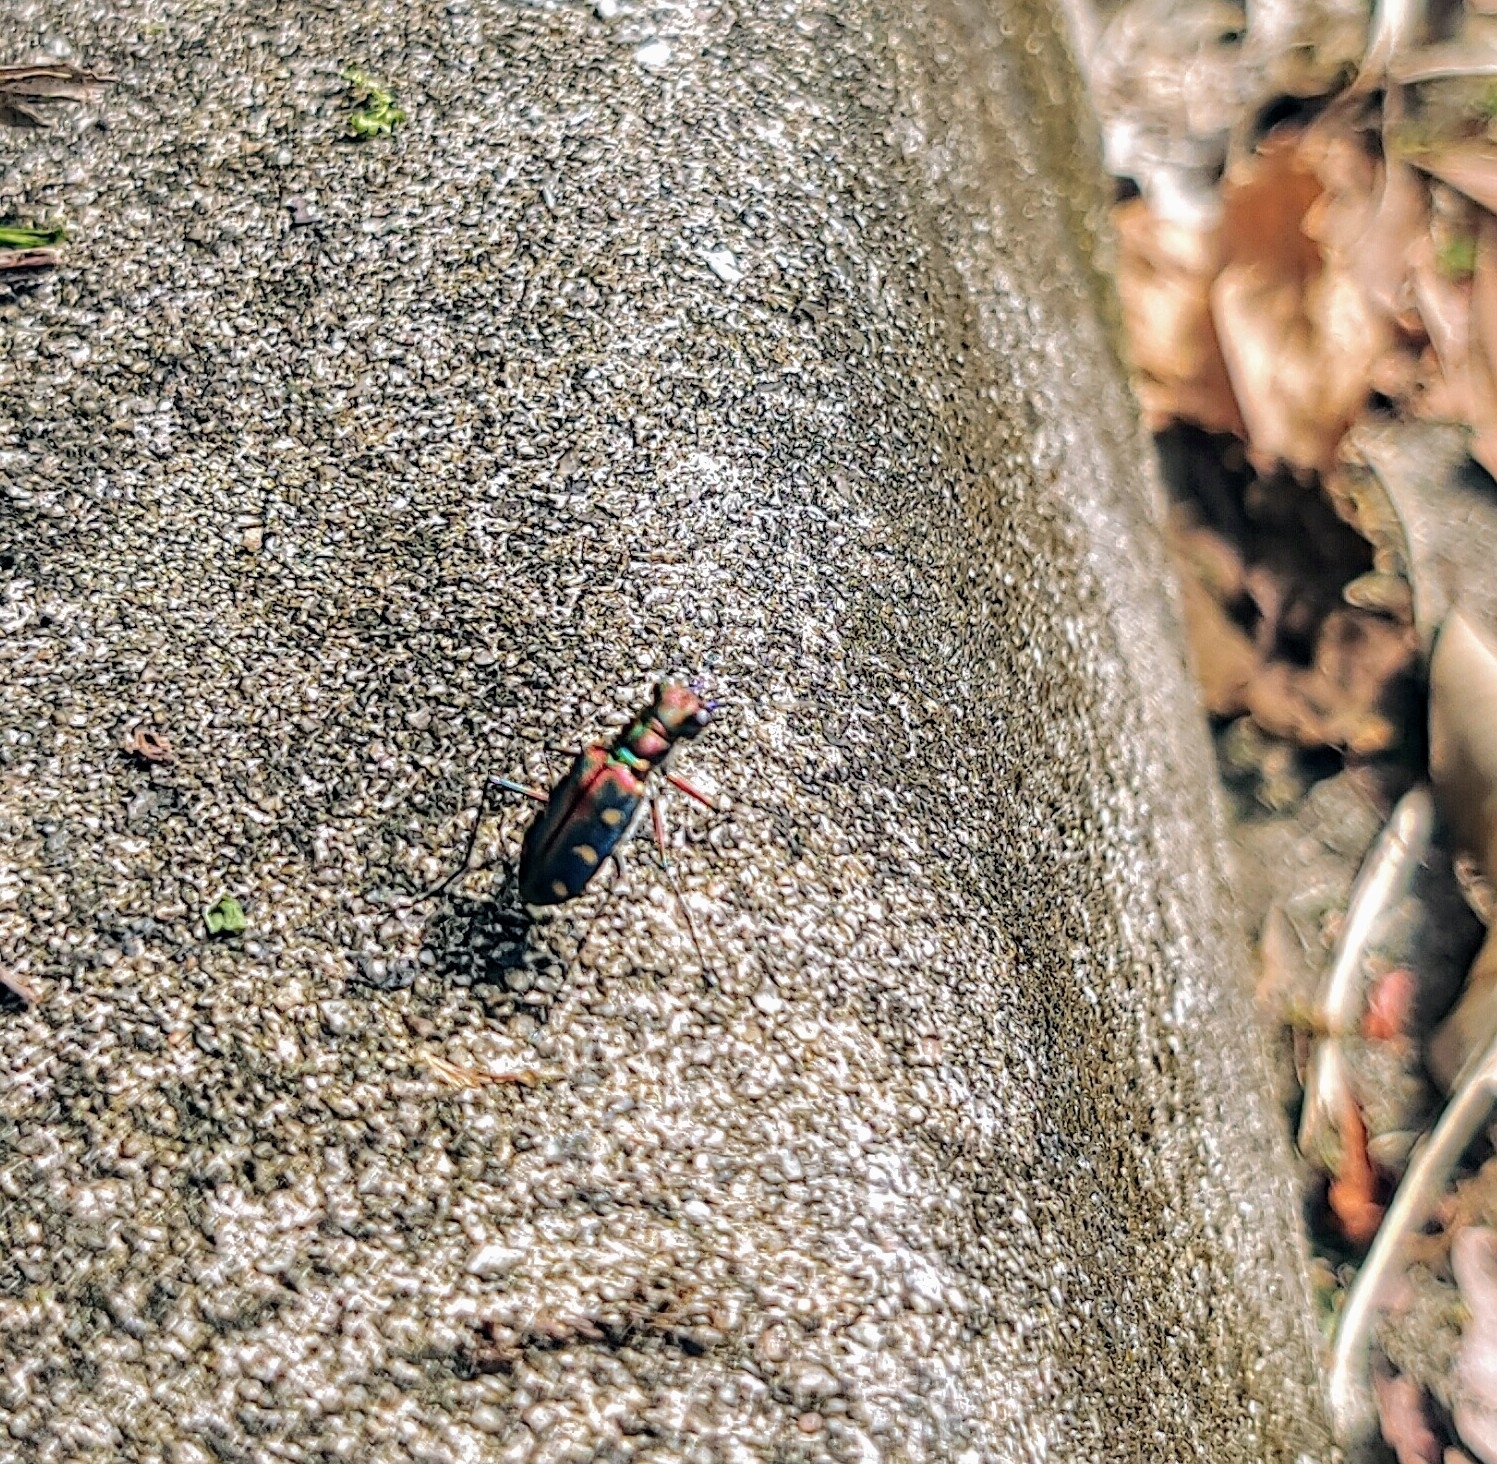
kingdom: Animalia
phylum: Arthropoda
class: Insecta
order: Coleoptera
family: Carabidae
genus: Cicindela
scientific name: Cicindela aurulenta
